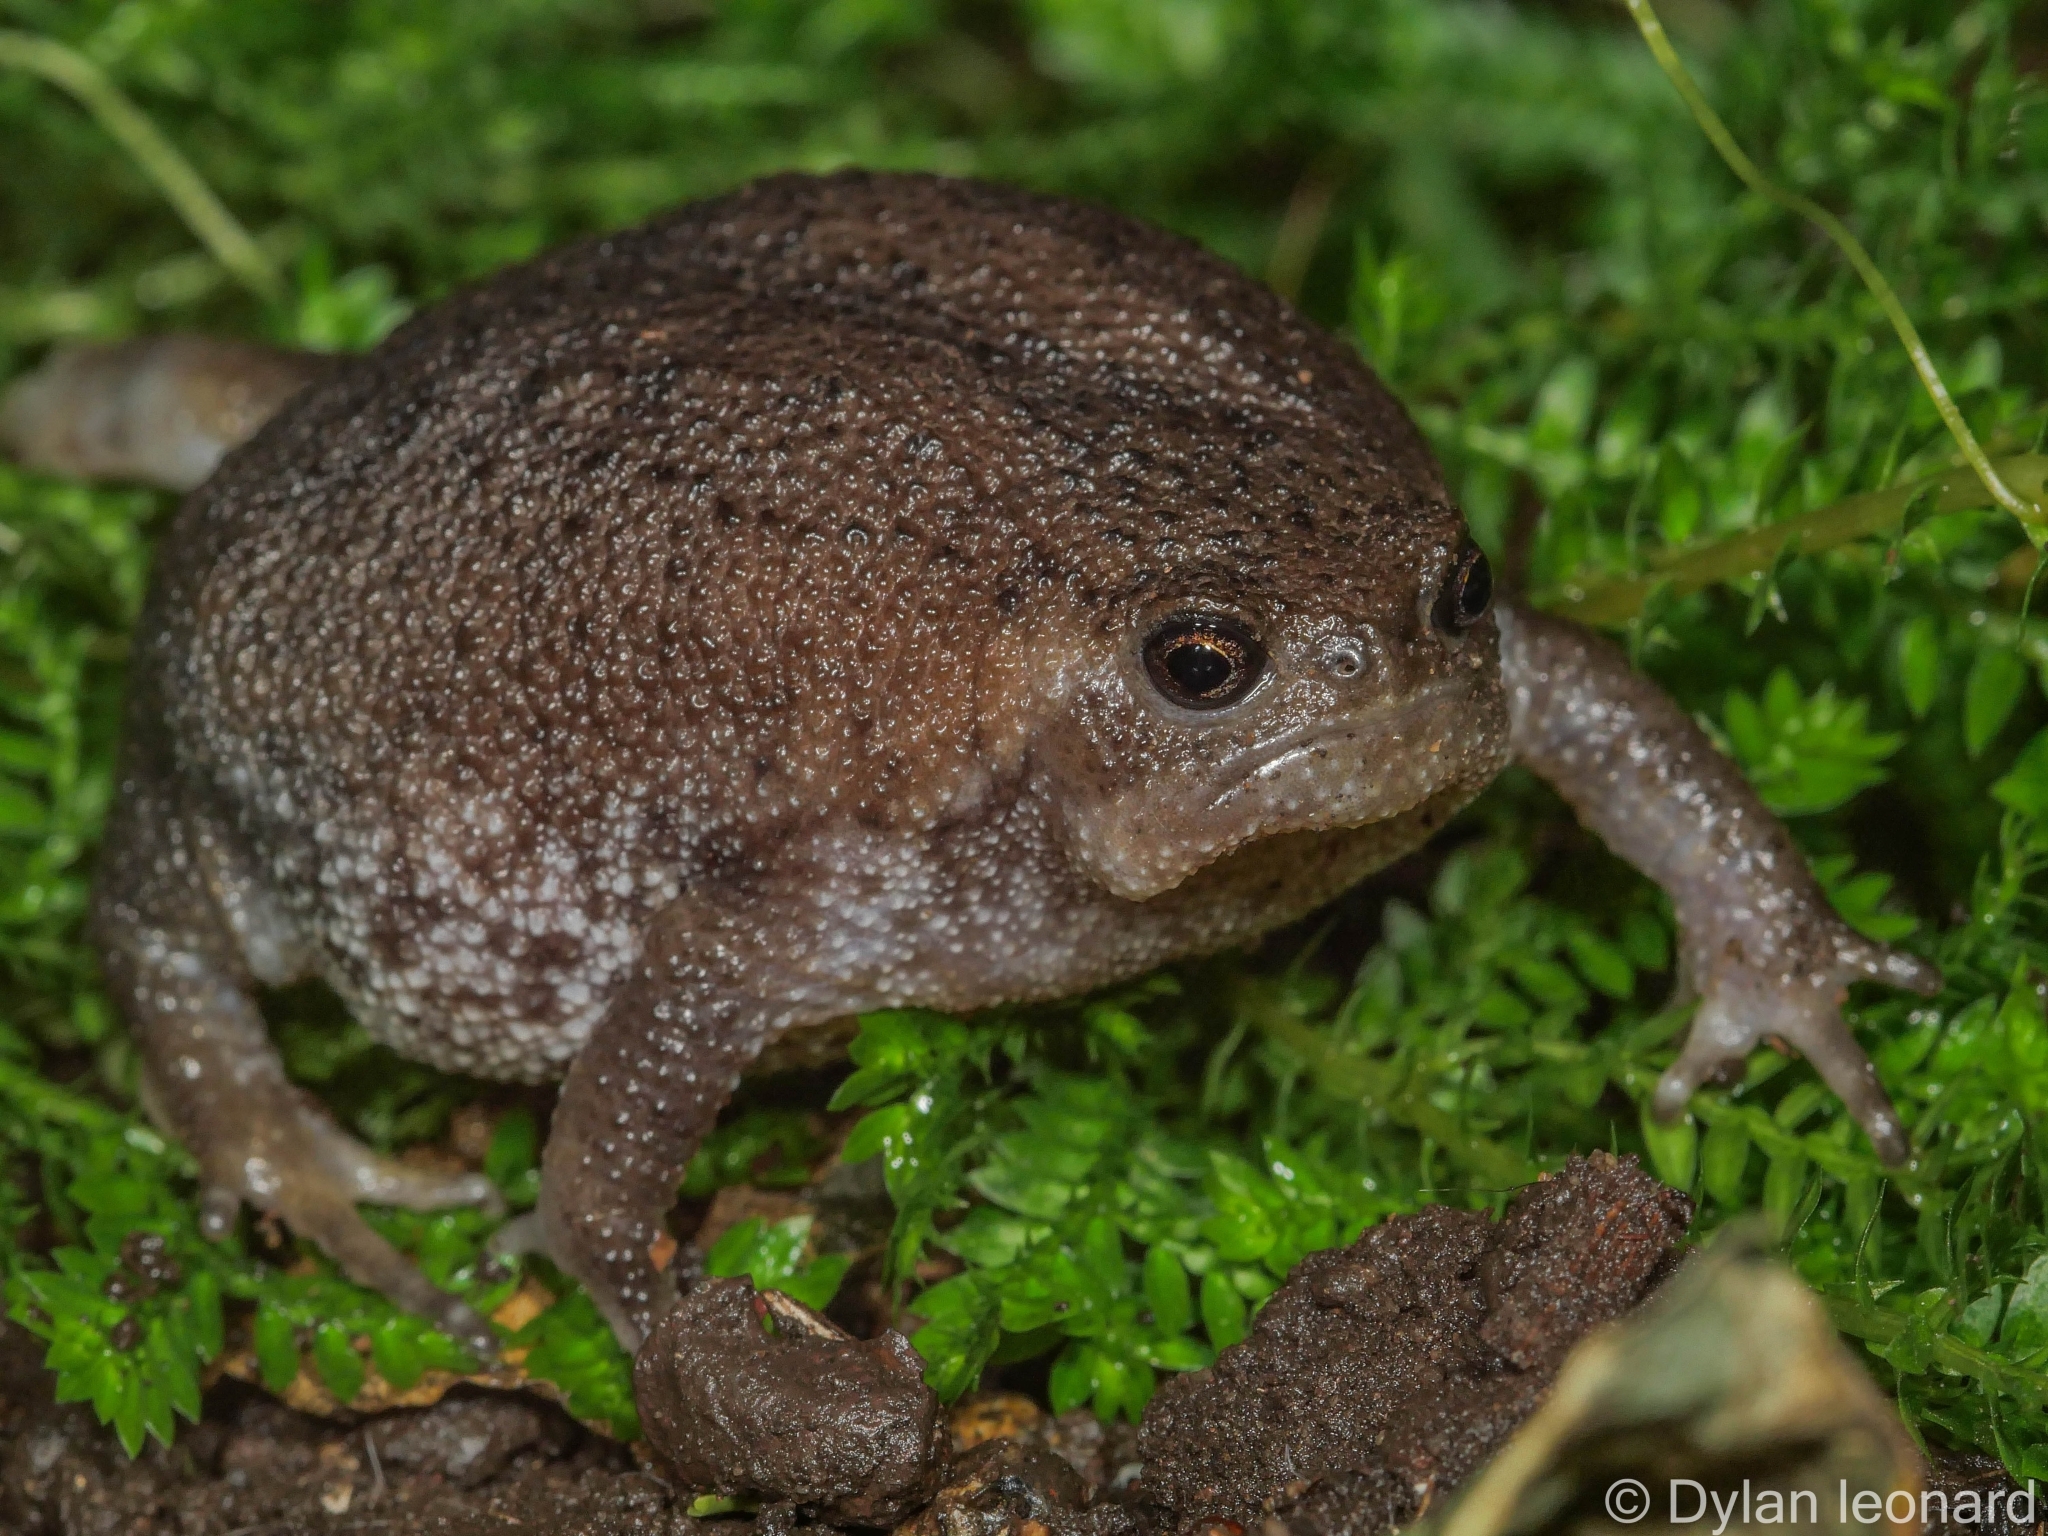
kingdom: Animalia
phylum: Chordata
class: Amphibia
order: Anura
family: Brevicipitidae
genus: Breviceps
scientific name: Breviceps verrucosus
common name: Plaintive rain frog
